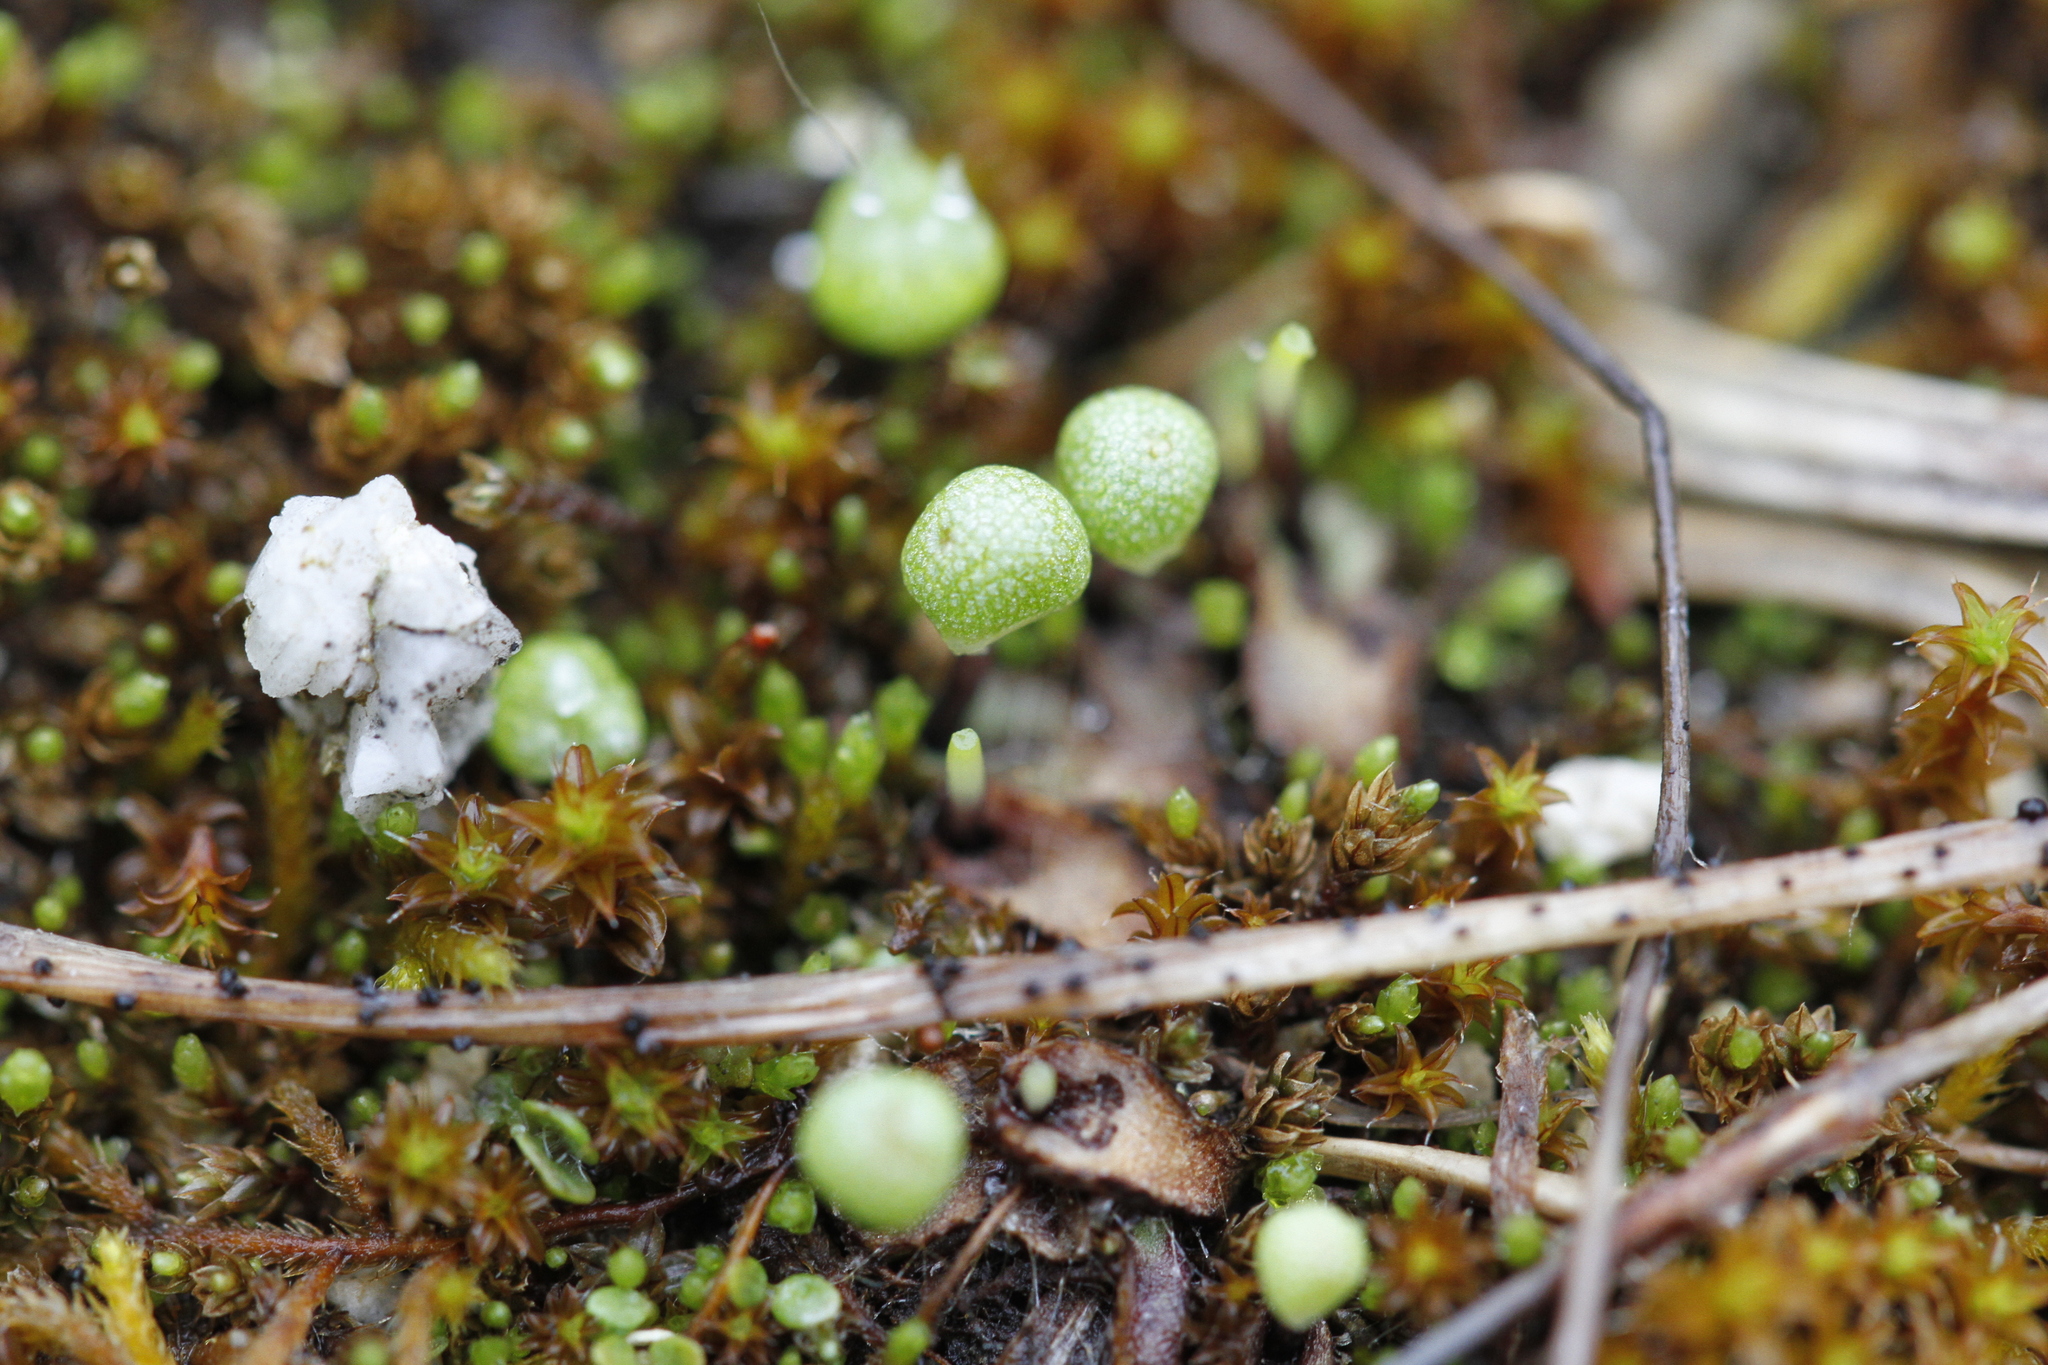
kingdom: Plantae
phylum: Marchantiophyta
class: Marchantiopsida
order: Marchantiales
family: Aytoniaceae
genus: Mannia
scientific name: Mannia gracilis
